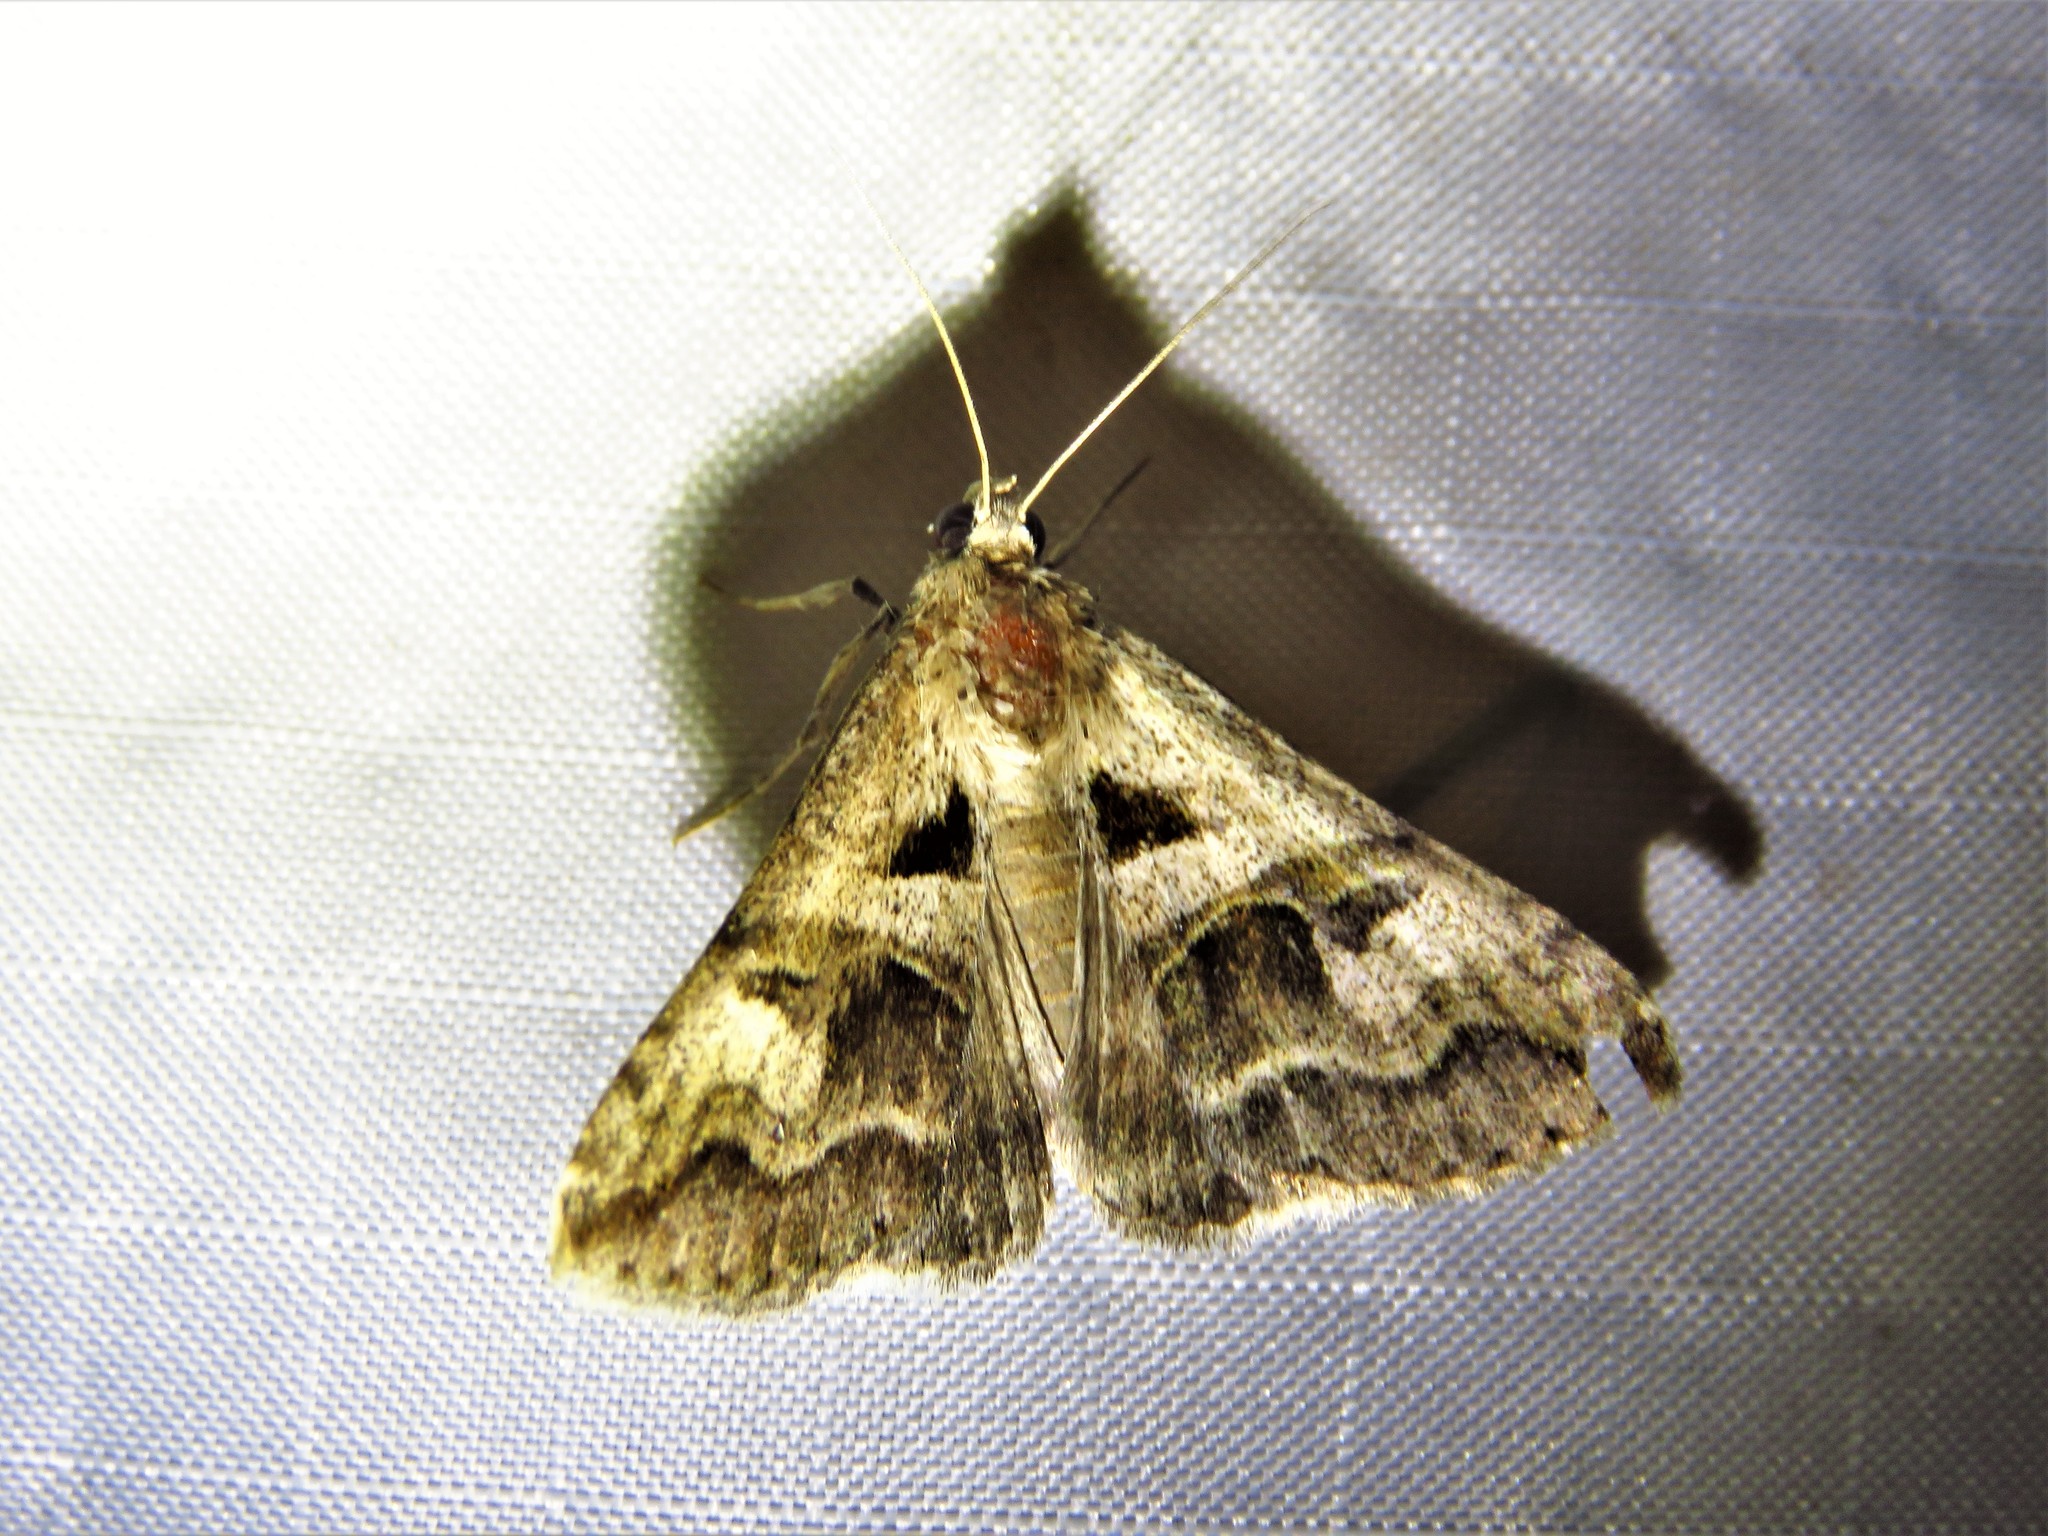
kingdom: Animalia
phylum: Arthropoda
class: Insecta
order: Lepidoptera
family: Erebidae
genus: Melipotis
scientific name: Melipotis cellaris
